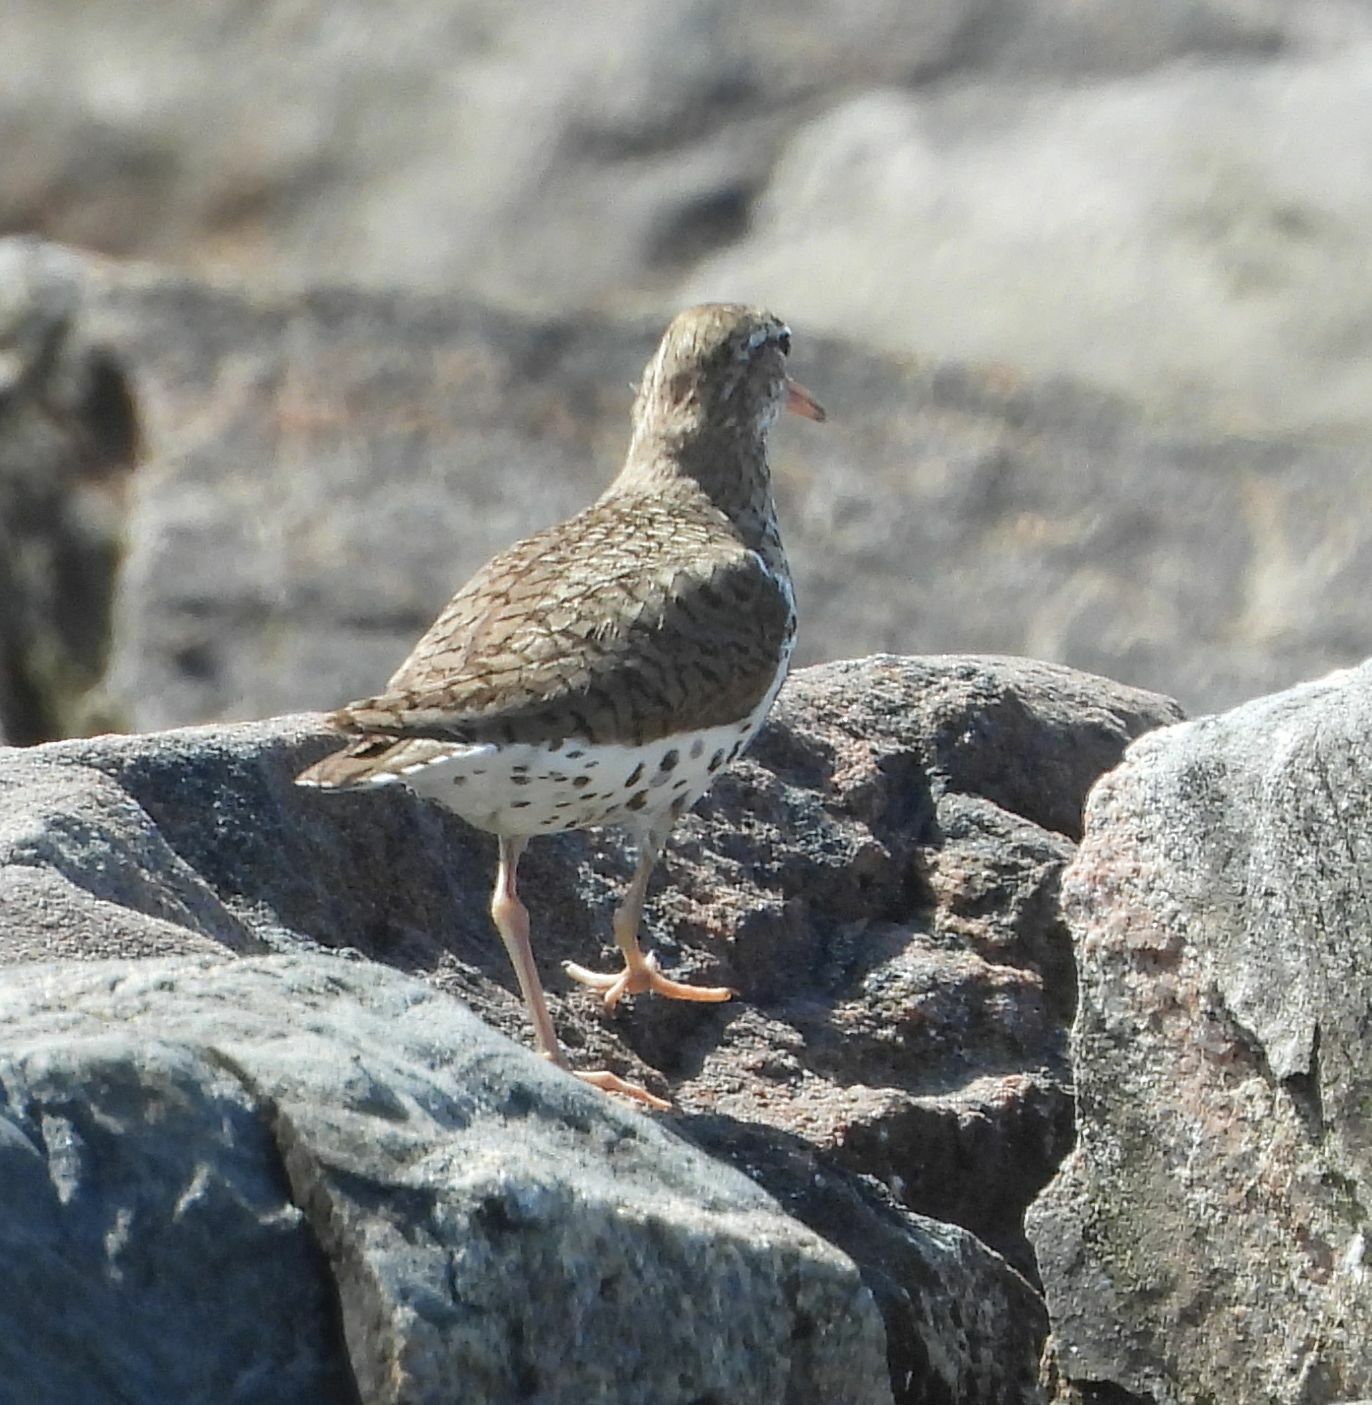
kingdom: Animalia
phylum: Chordata
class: Aves
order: Charadriiformes
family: Scolopacidae
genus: Actitis
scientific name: Actitis macularius
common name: Spotted sandpiper
